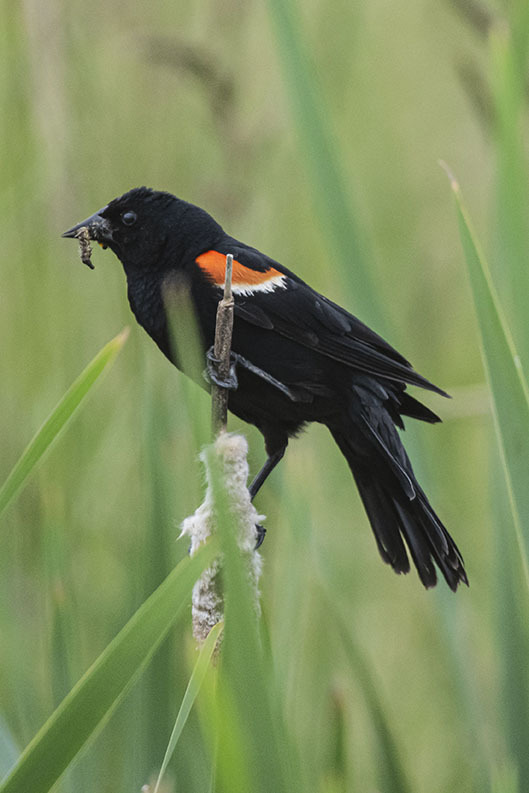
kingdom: Animalia
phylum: Chordata
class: Aves
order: Passeriformes
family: Icteridae
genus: Agelaius
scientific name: Agelaius phoeniceus
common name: Red-winged blackbird
